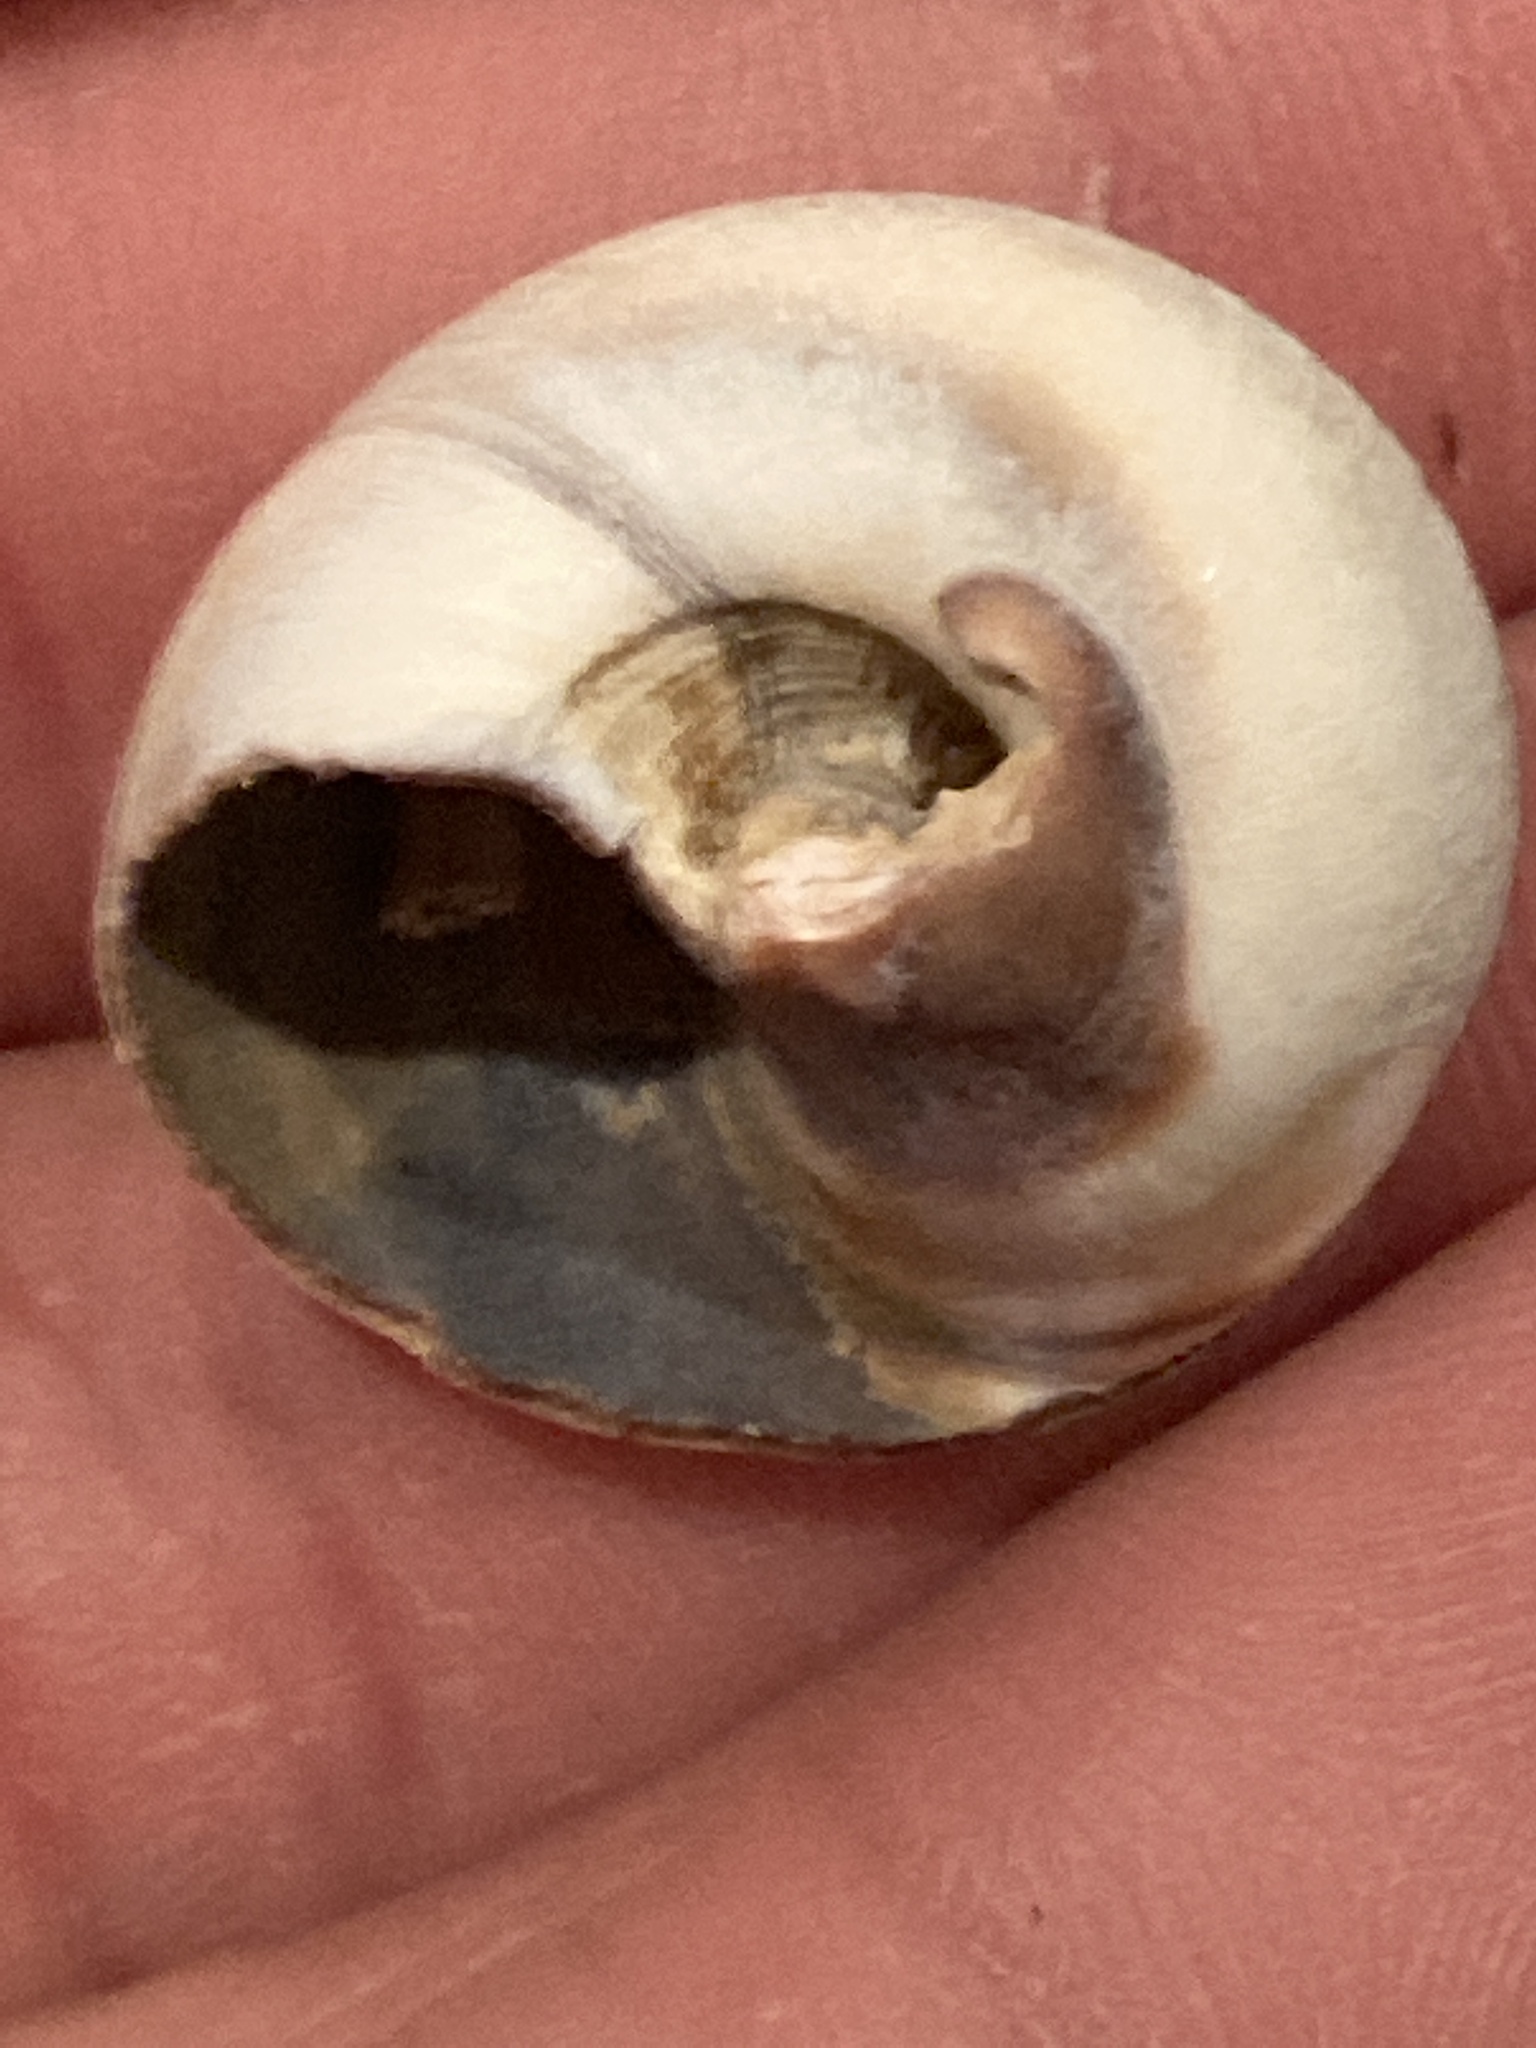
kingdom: Animalia
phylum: Mollusca
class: Gastropoda
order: Littorinimorpha
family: Naticidae
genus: Neverita
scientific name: Neverita delessertiana
